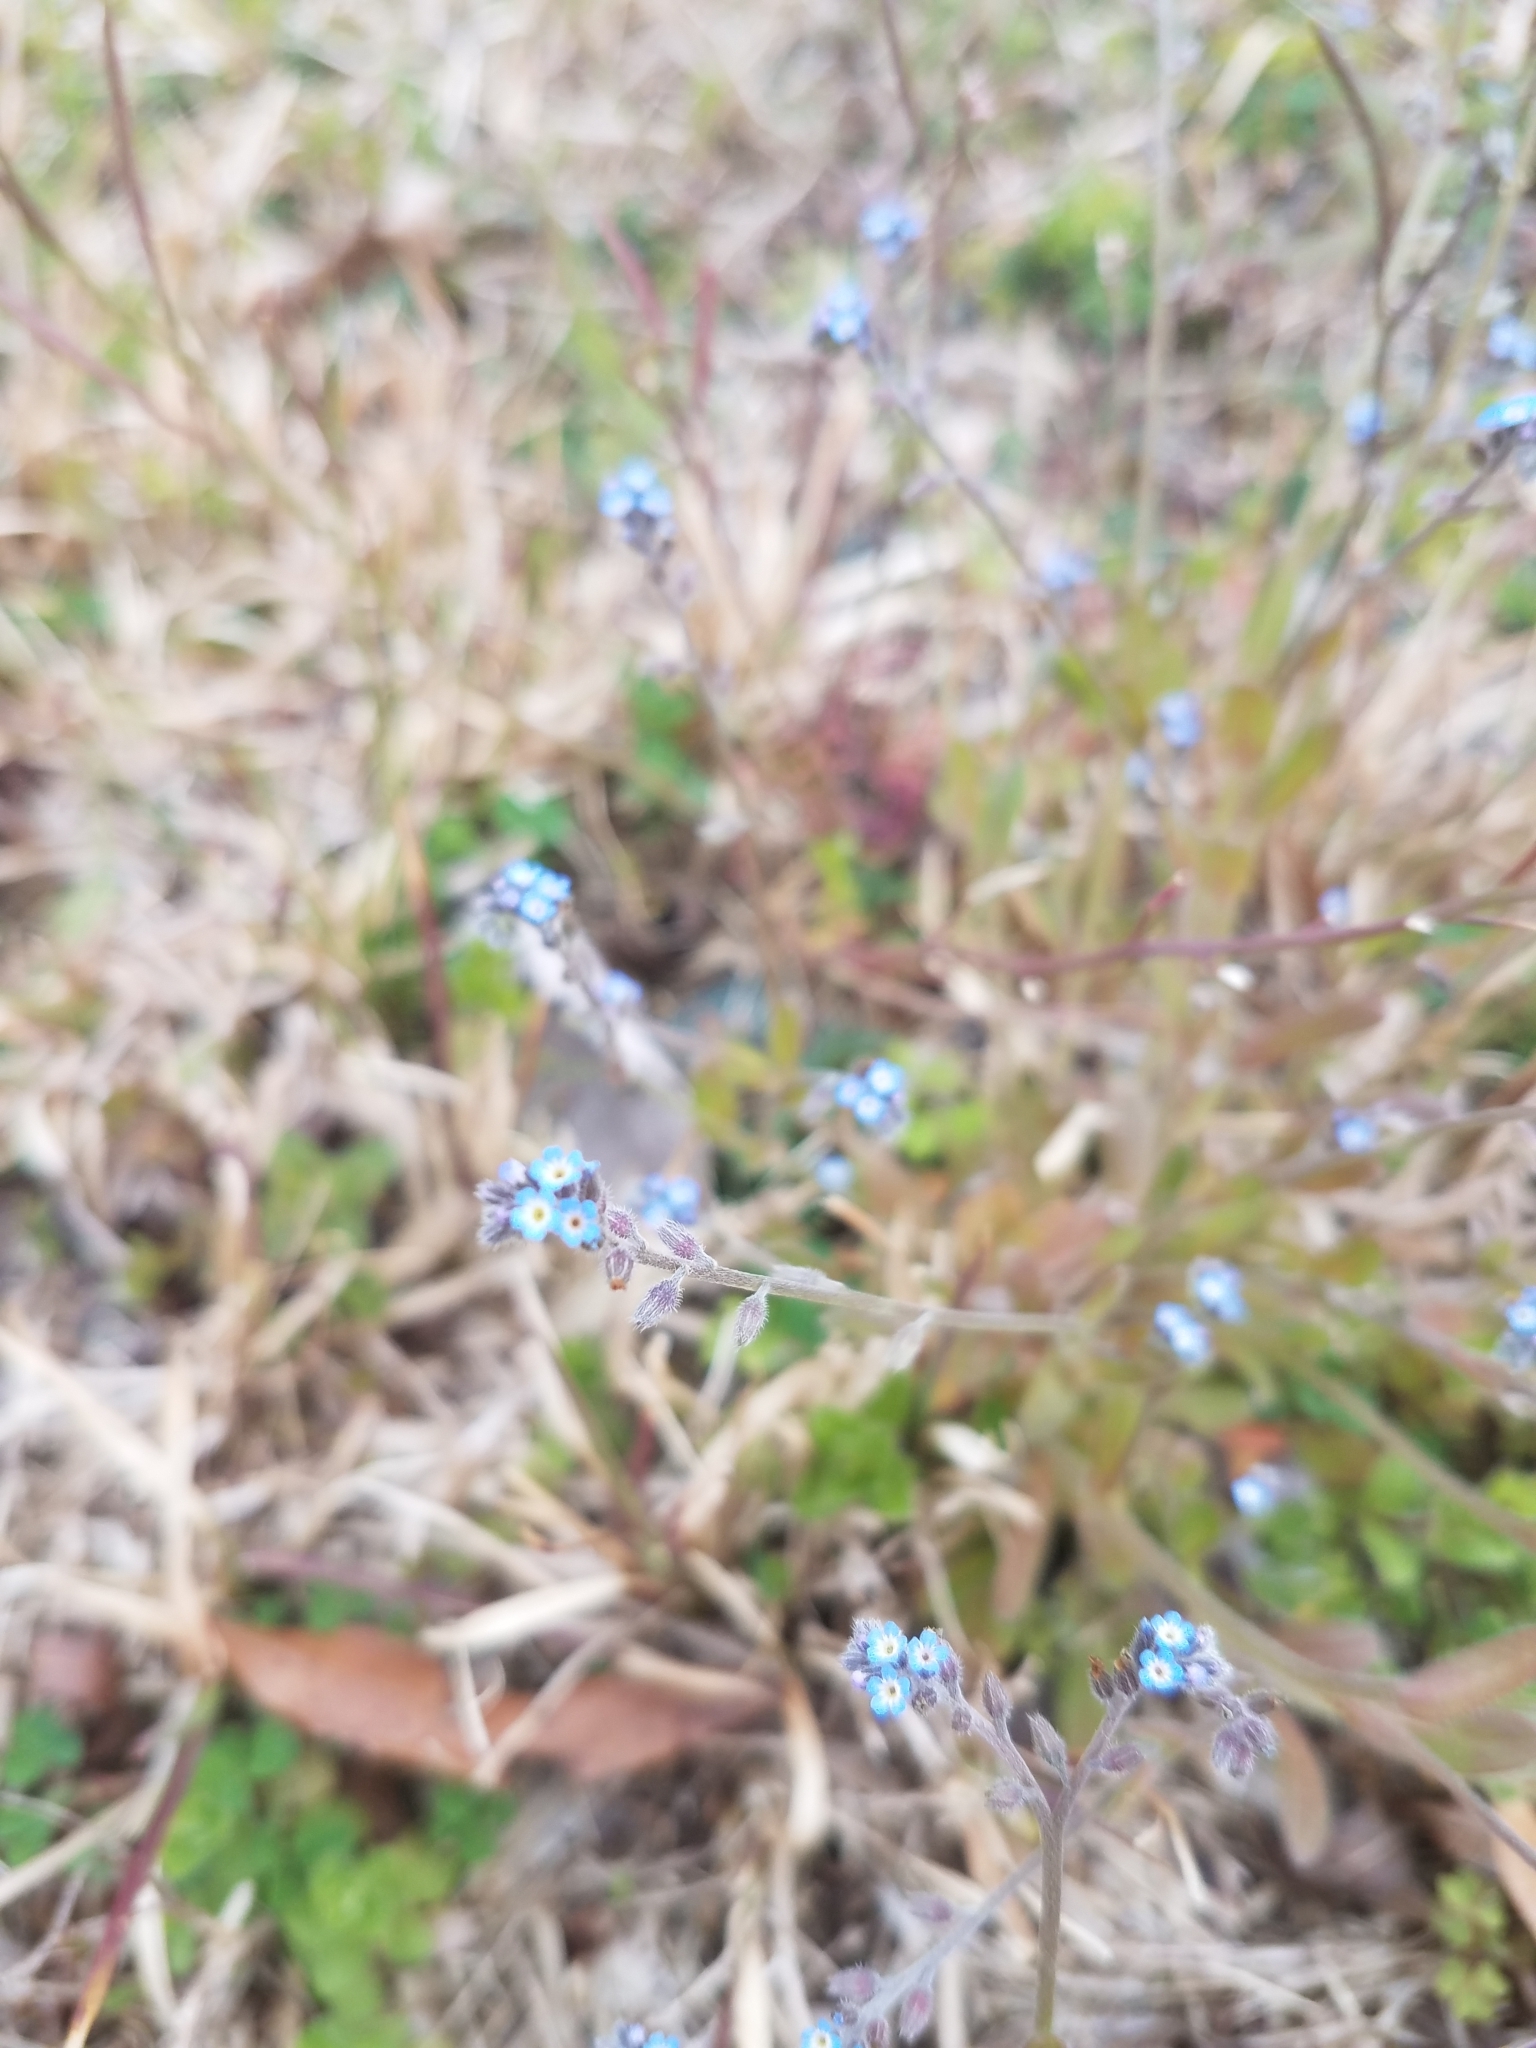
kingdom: Plantae
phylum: Tracheophyta
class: Magnoliopsida
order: Boraginales
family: Boraginaceae
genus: Myosotis
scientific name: Myosotis ramosissima
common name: Early forget-me-not
